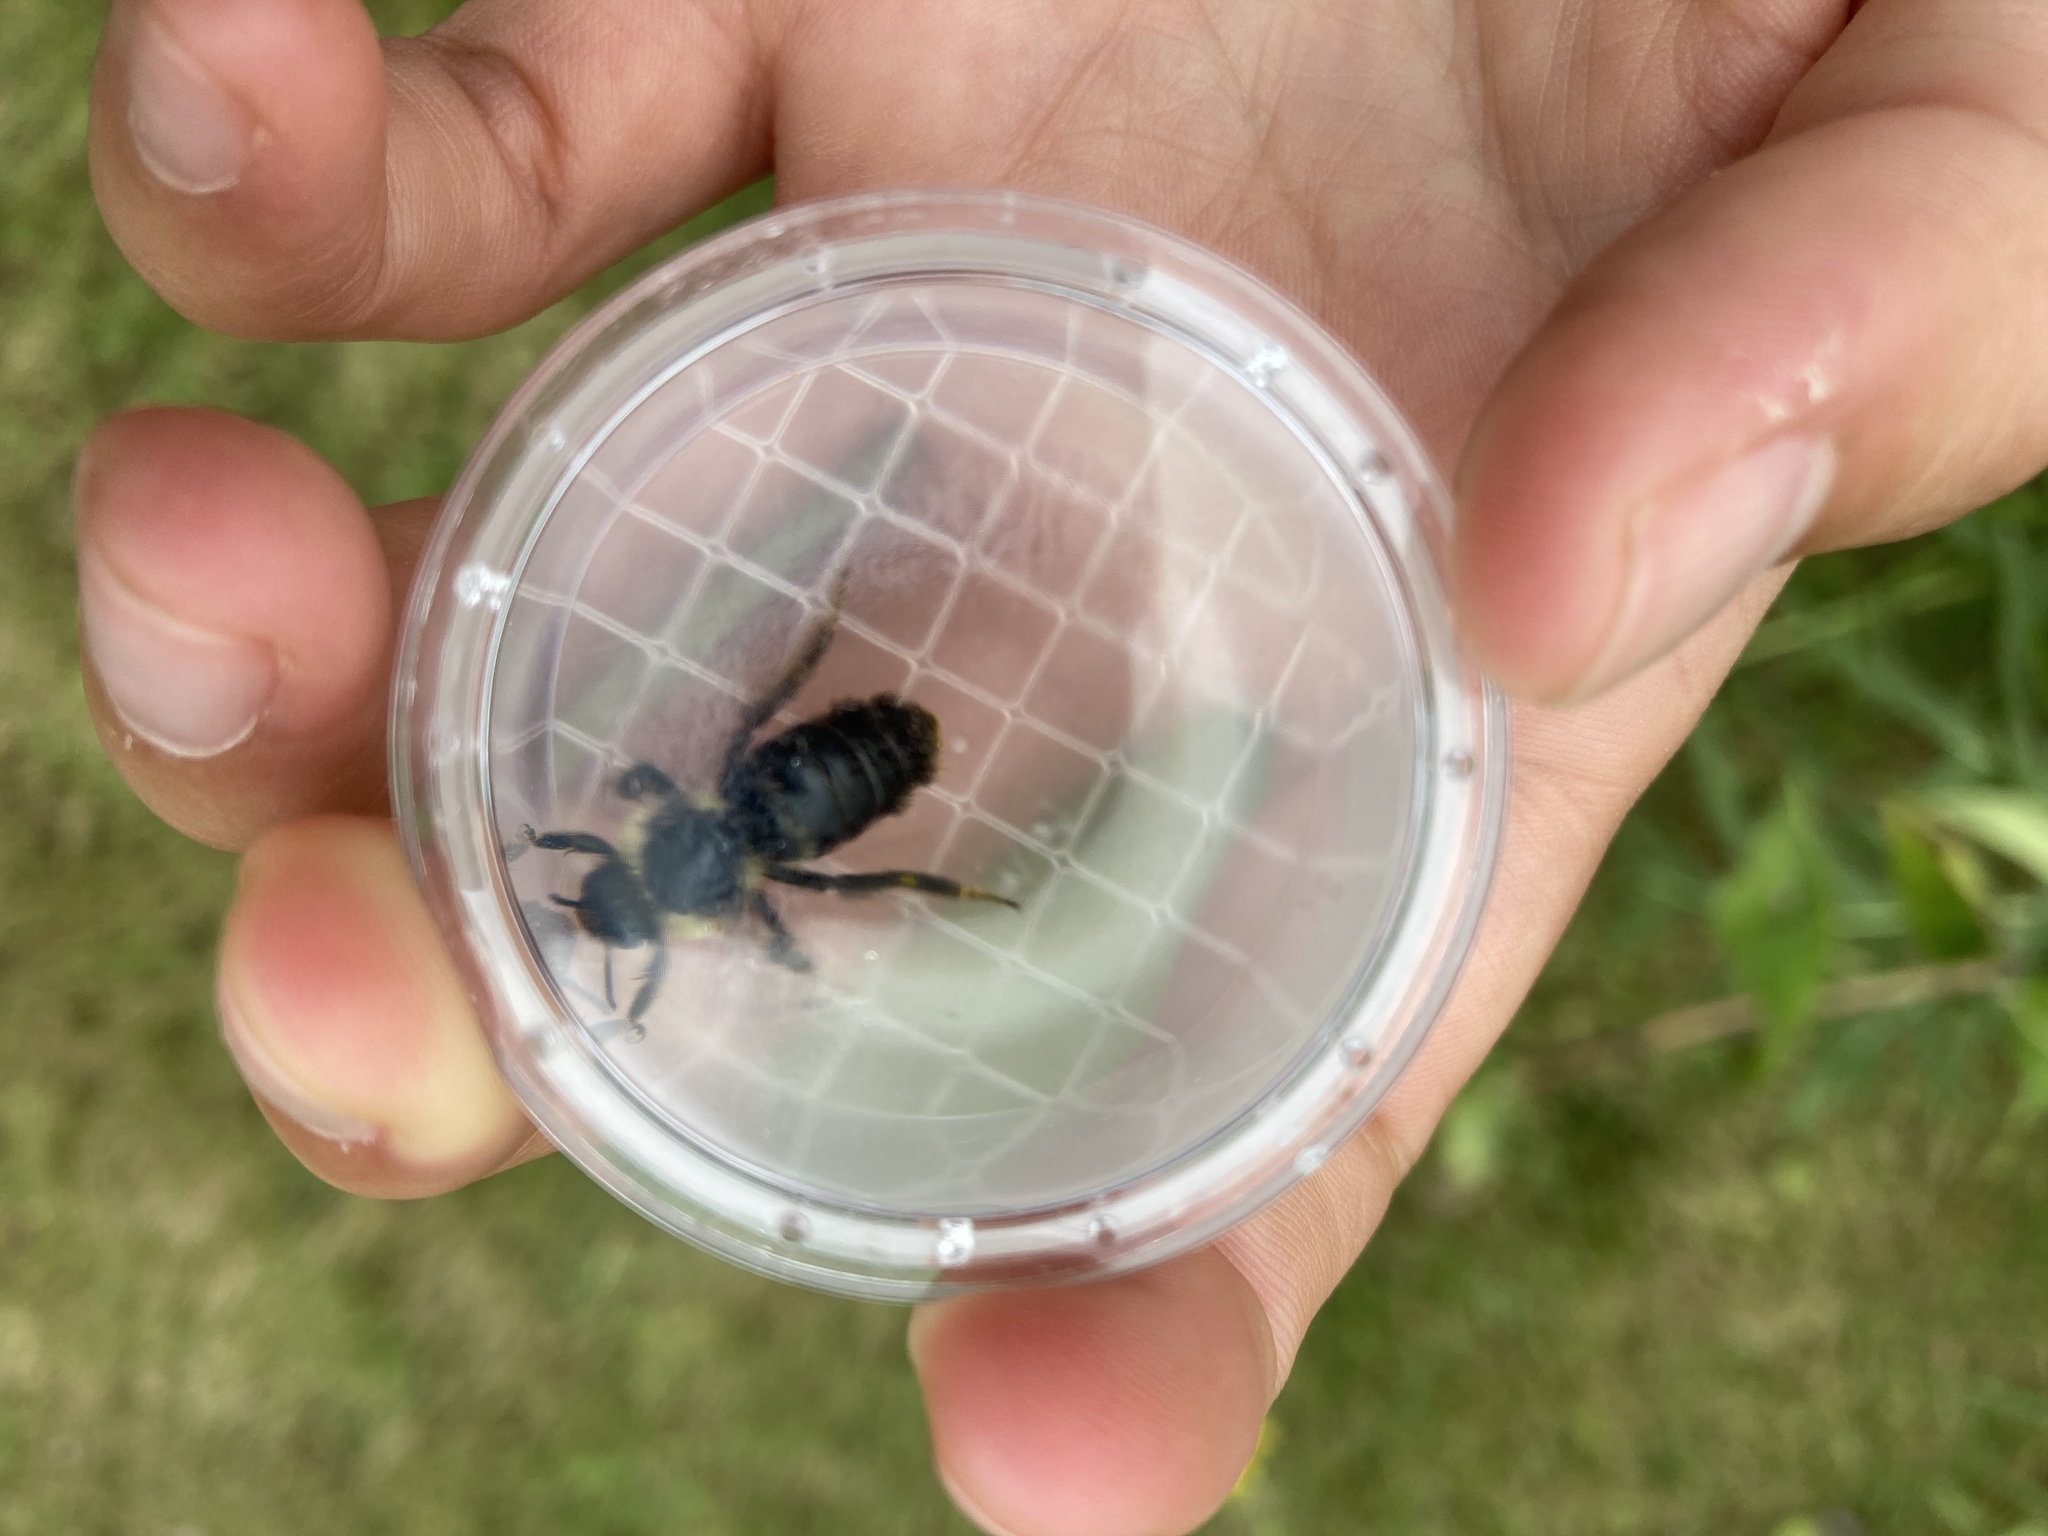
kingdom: Animalia
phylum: Arthropoda
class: Insecta
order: Hymenoptera
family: Apidae
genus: Bombus
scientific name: Bombus impatiens
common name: Common eastern bumble bee
